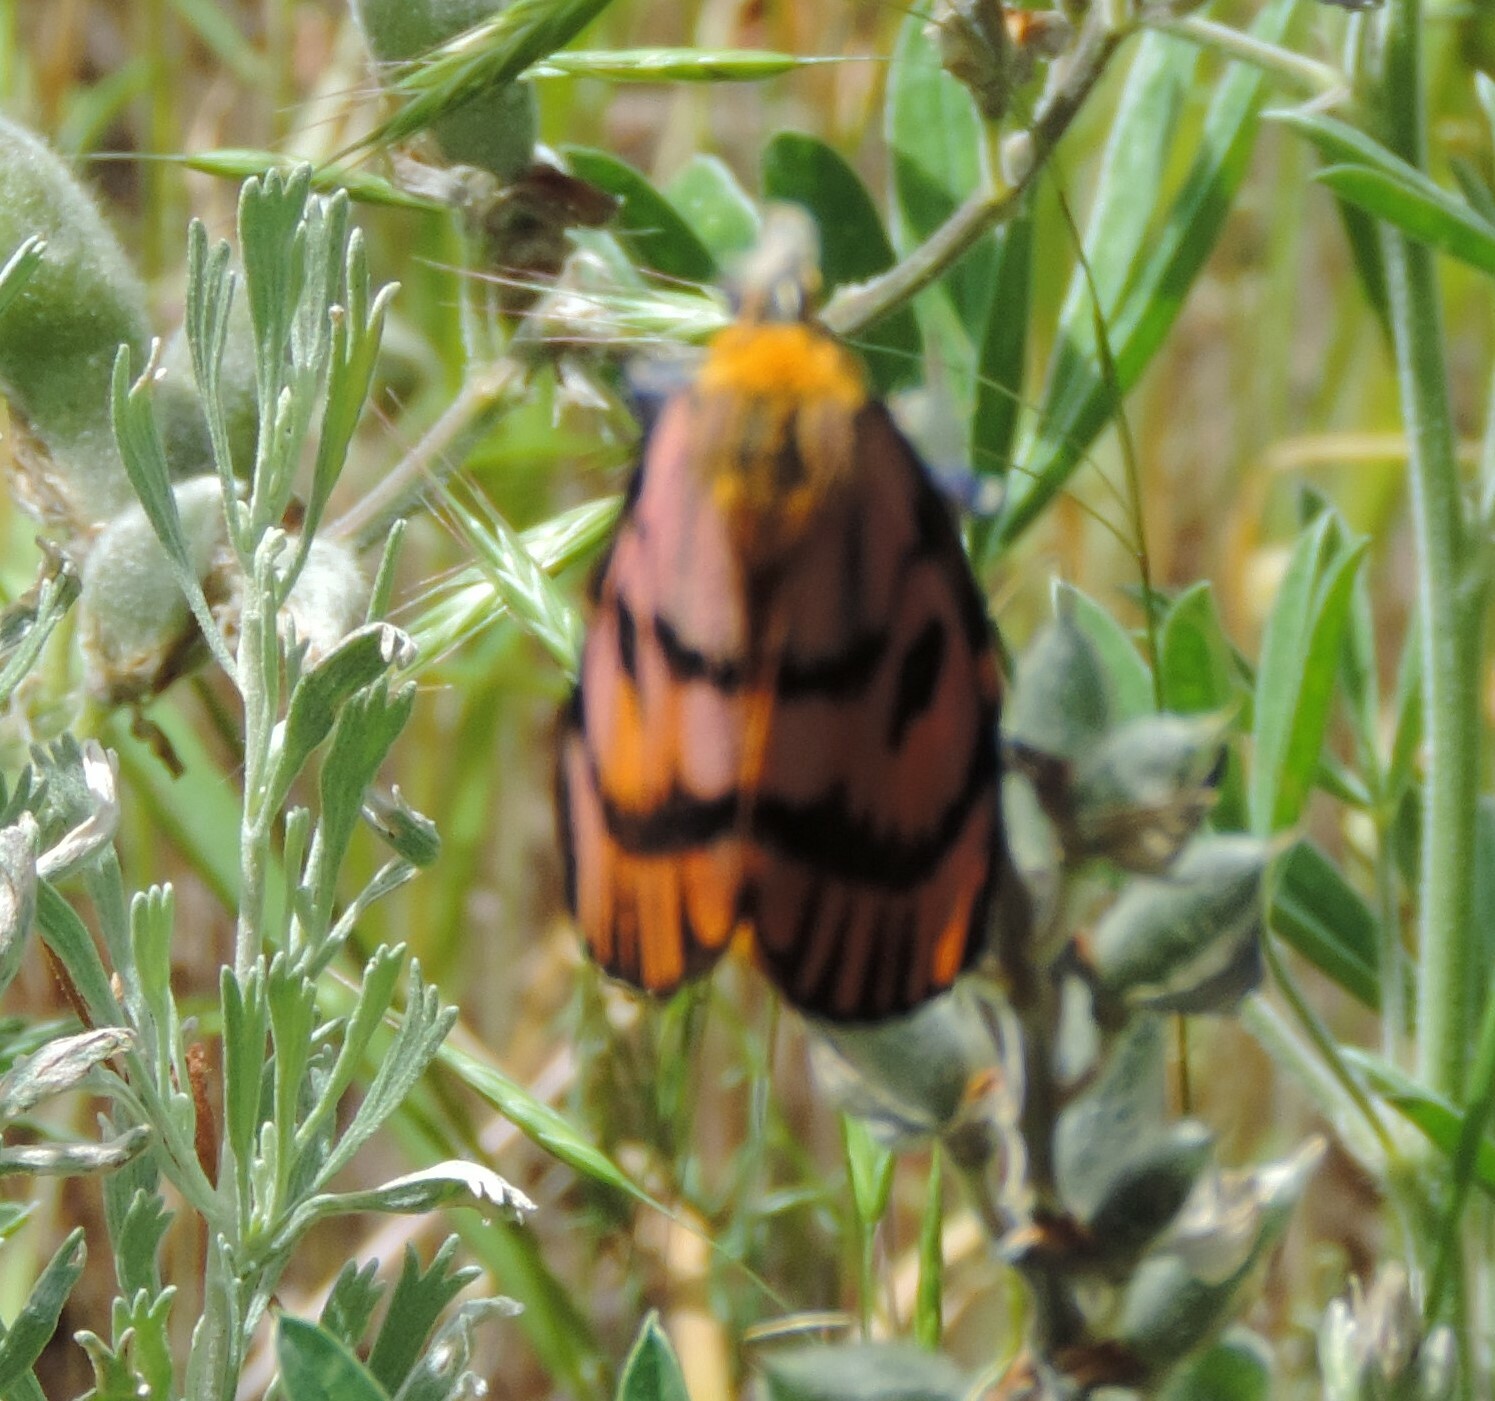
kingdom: Animalia
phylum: Arthropoda
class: Insecta
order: Lepidoptera
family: Saturniidae
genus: Hemileuca
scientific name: Hemileuca eglanterina
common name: Western sheepmoth
